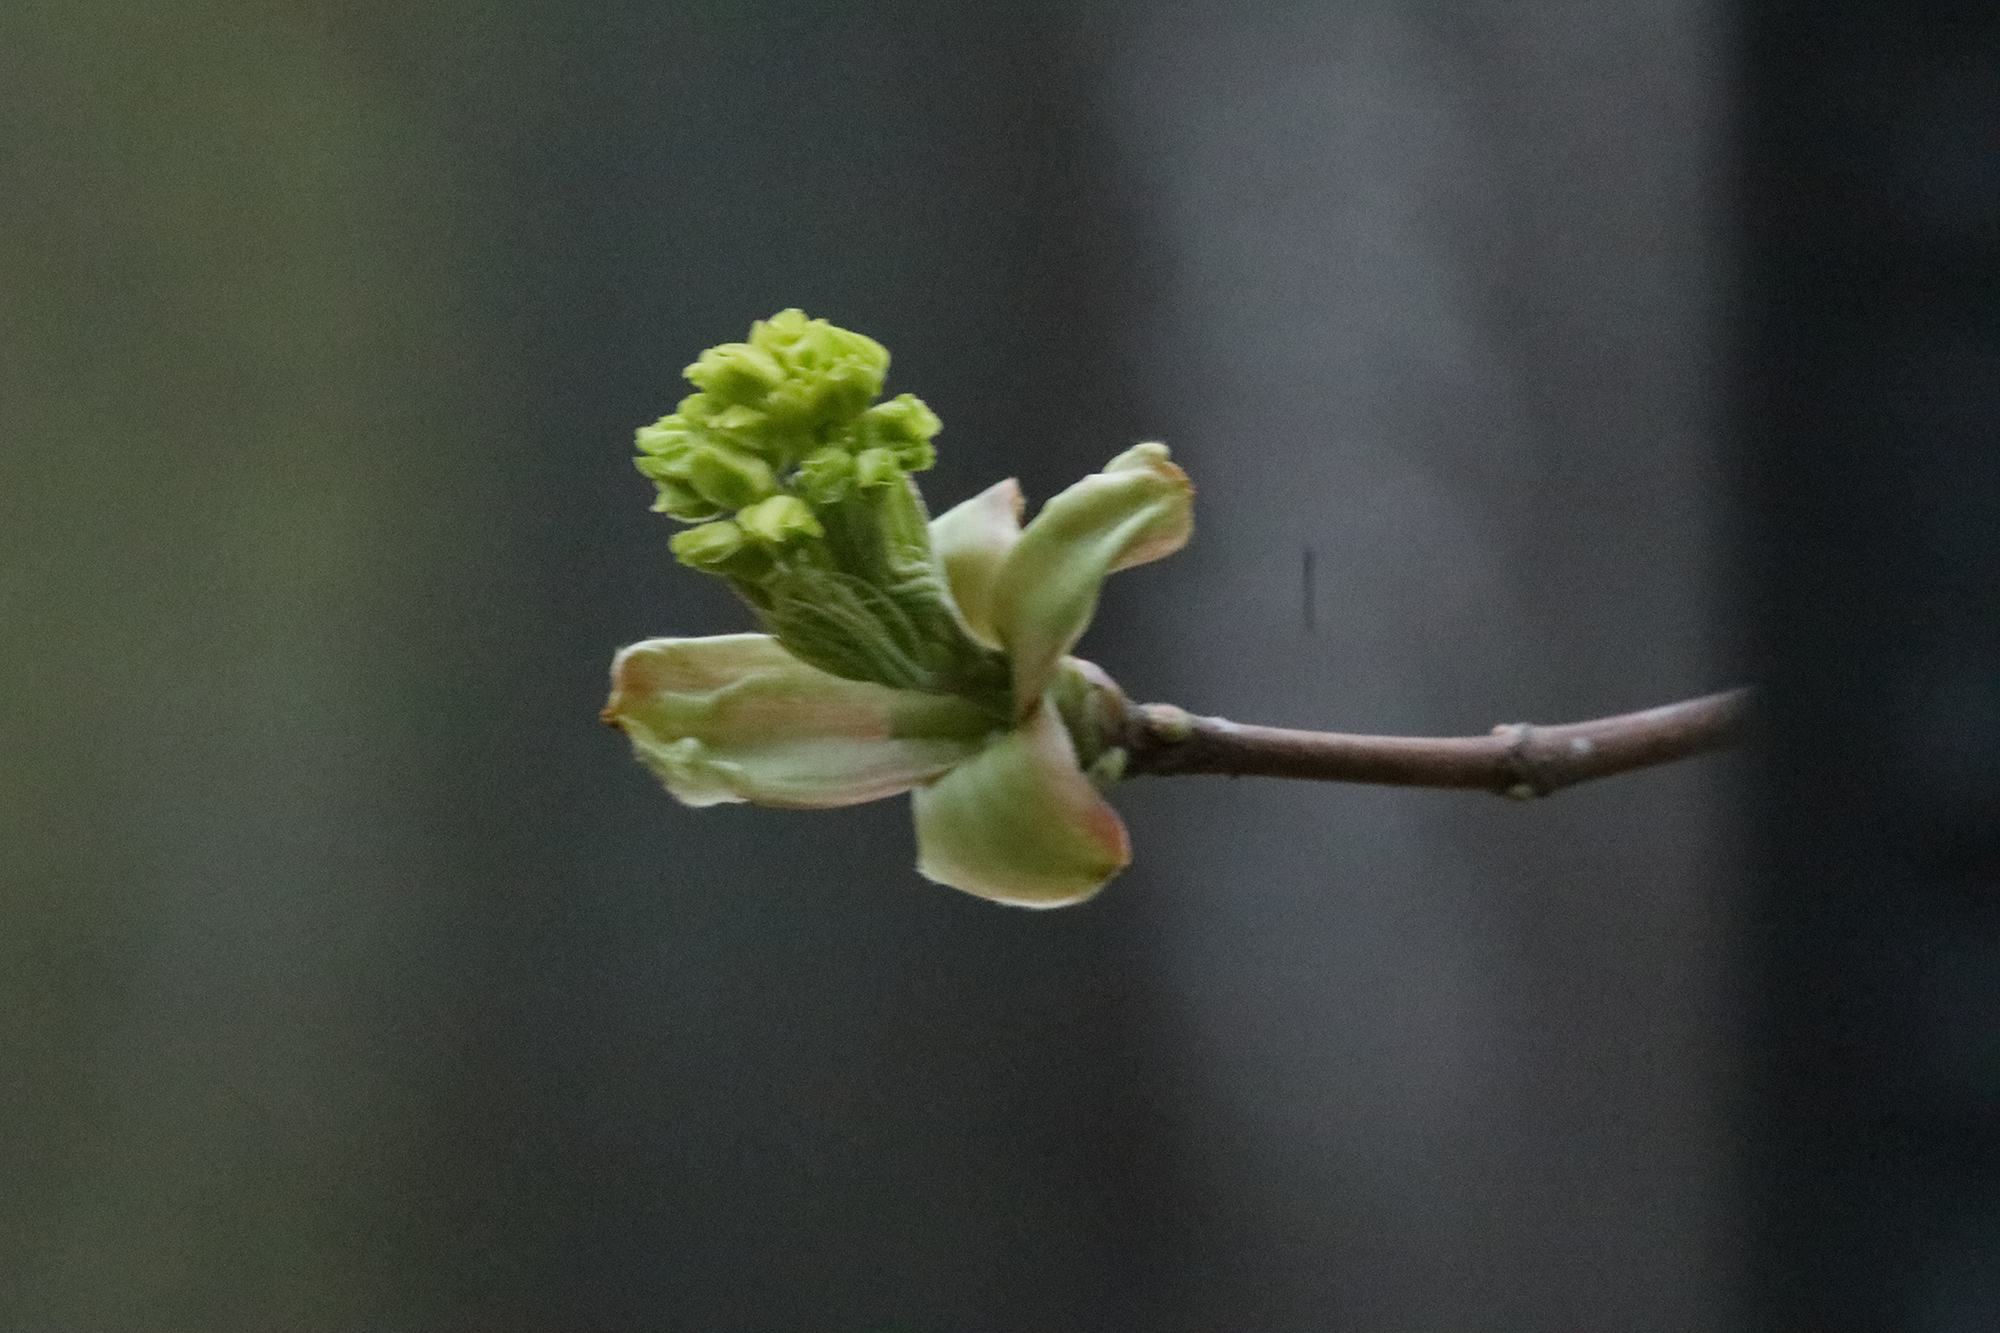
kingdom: Plantae
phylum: Tracheophyta
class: Magnoliopsida
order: Sapindales
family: Sapindaceae
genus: Acer
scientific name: Acer platanoides
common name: Norway maple
